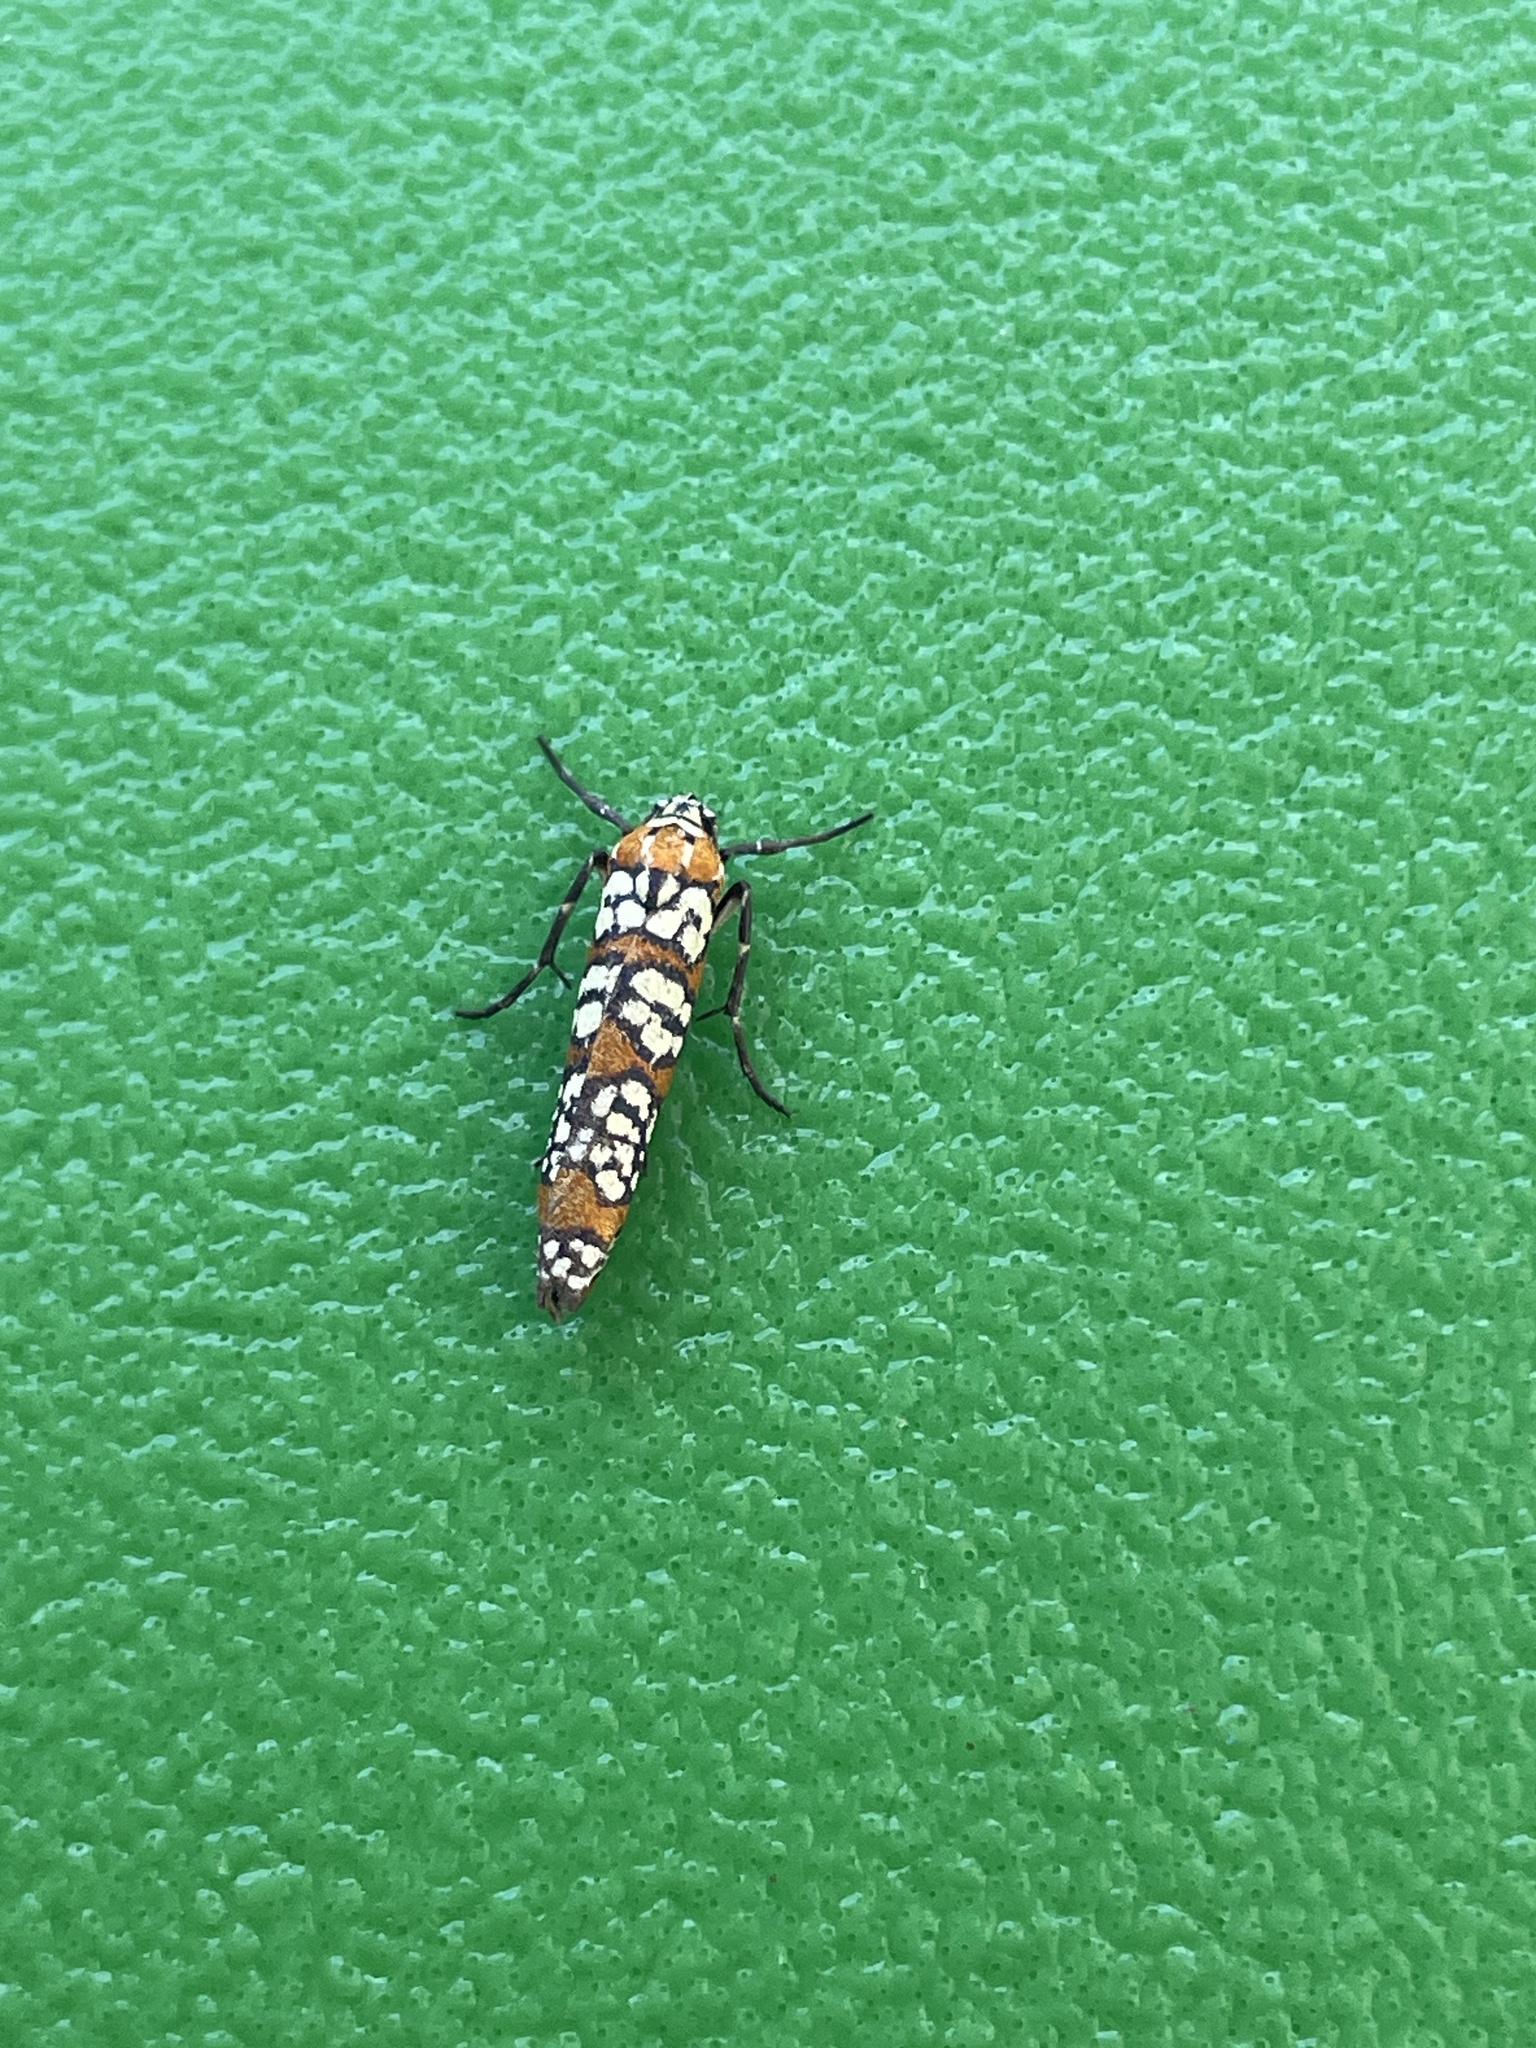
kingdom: Animalia
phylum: Arthropoda
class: Insecta
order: Lepidoptera
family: Attevidae
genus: Atteva
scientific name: Atteva punctella
